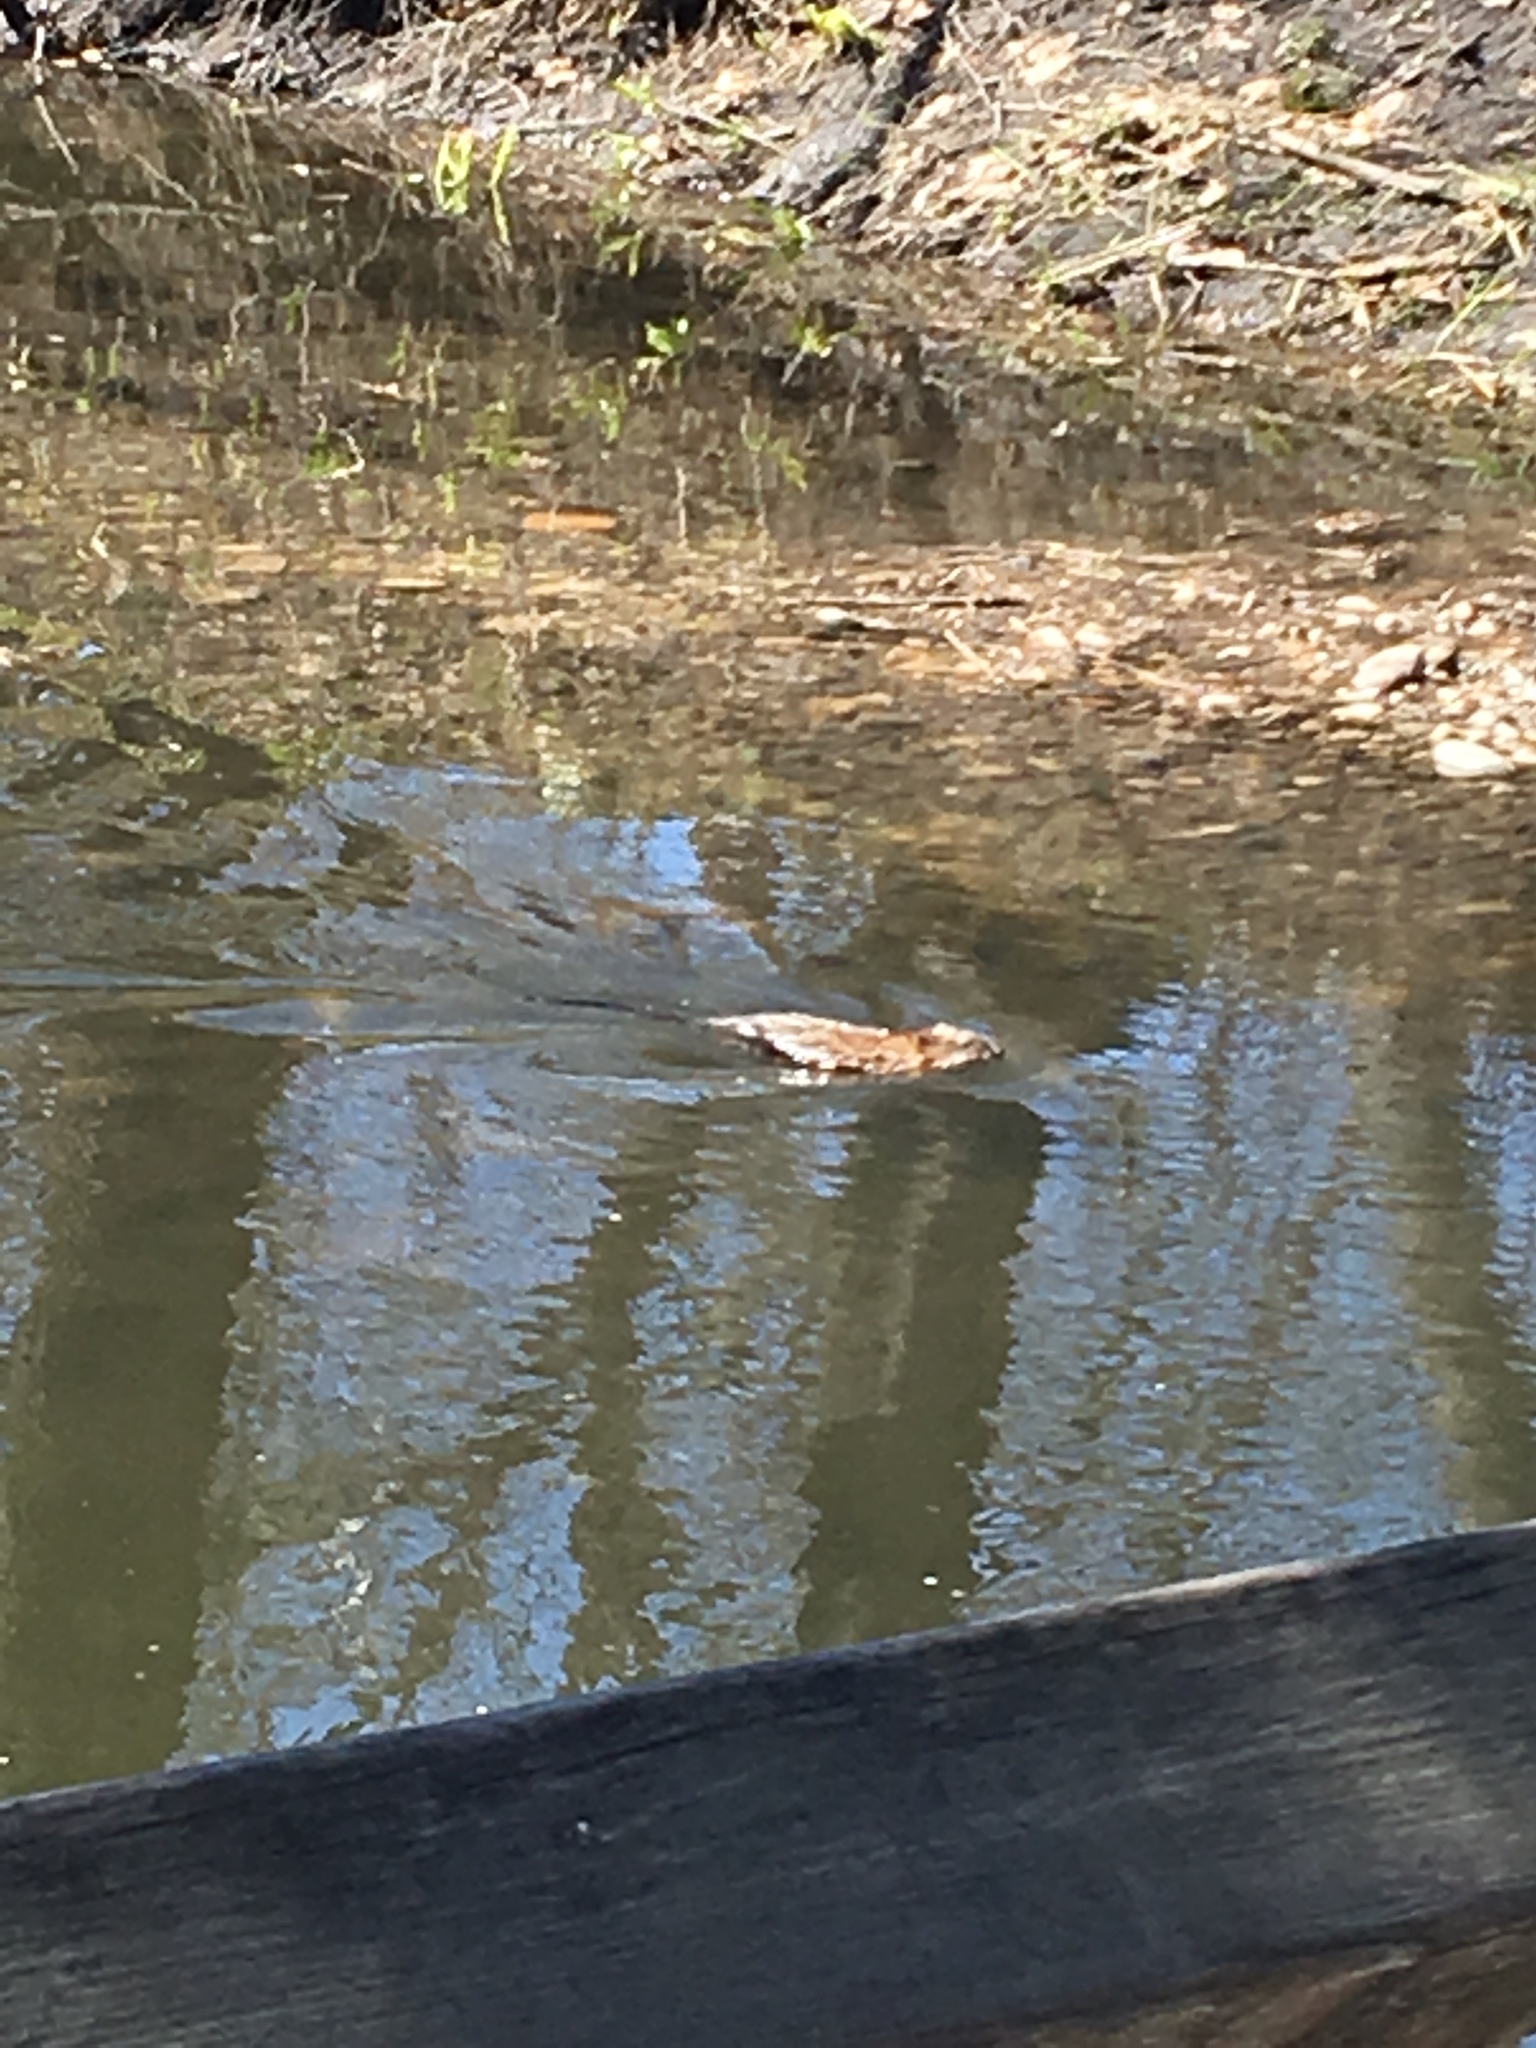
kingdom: Animalia
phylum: Chordata
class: Mammalia
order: Rodentia
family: Cricetidae
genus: Ondatra
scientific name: Ondatra zibethicus
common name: Muskrat
